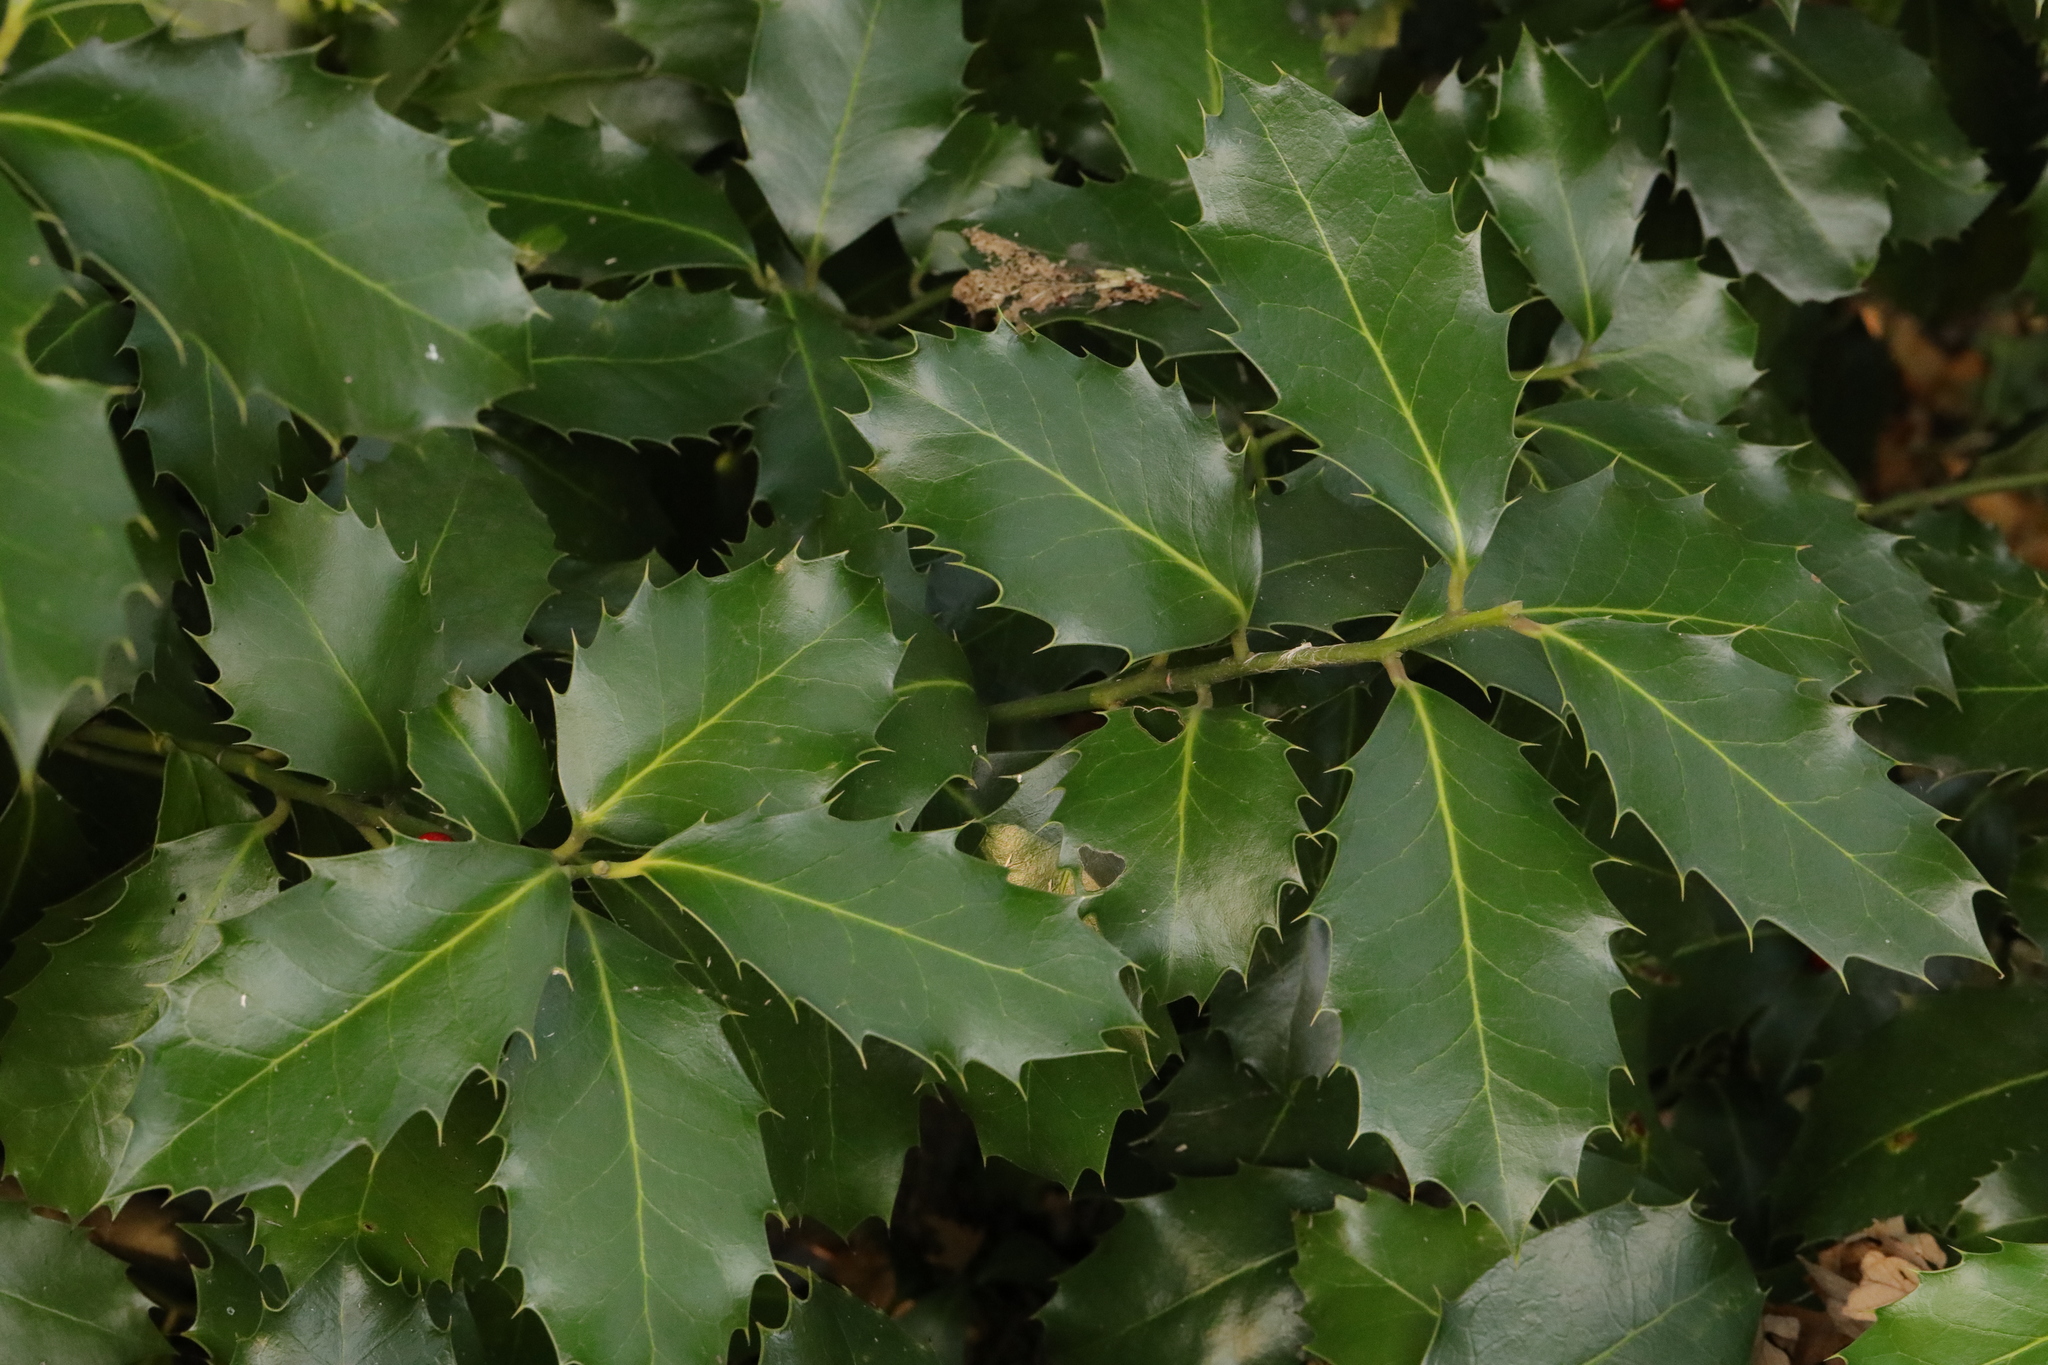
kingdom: Plantae
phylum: Tracheophyta
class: Magnoliopsida
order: Aquifoliales
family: Aquifoliaceae
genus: Ilex
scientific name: Ilex aquifolium
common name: English holly
